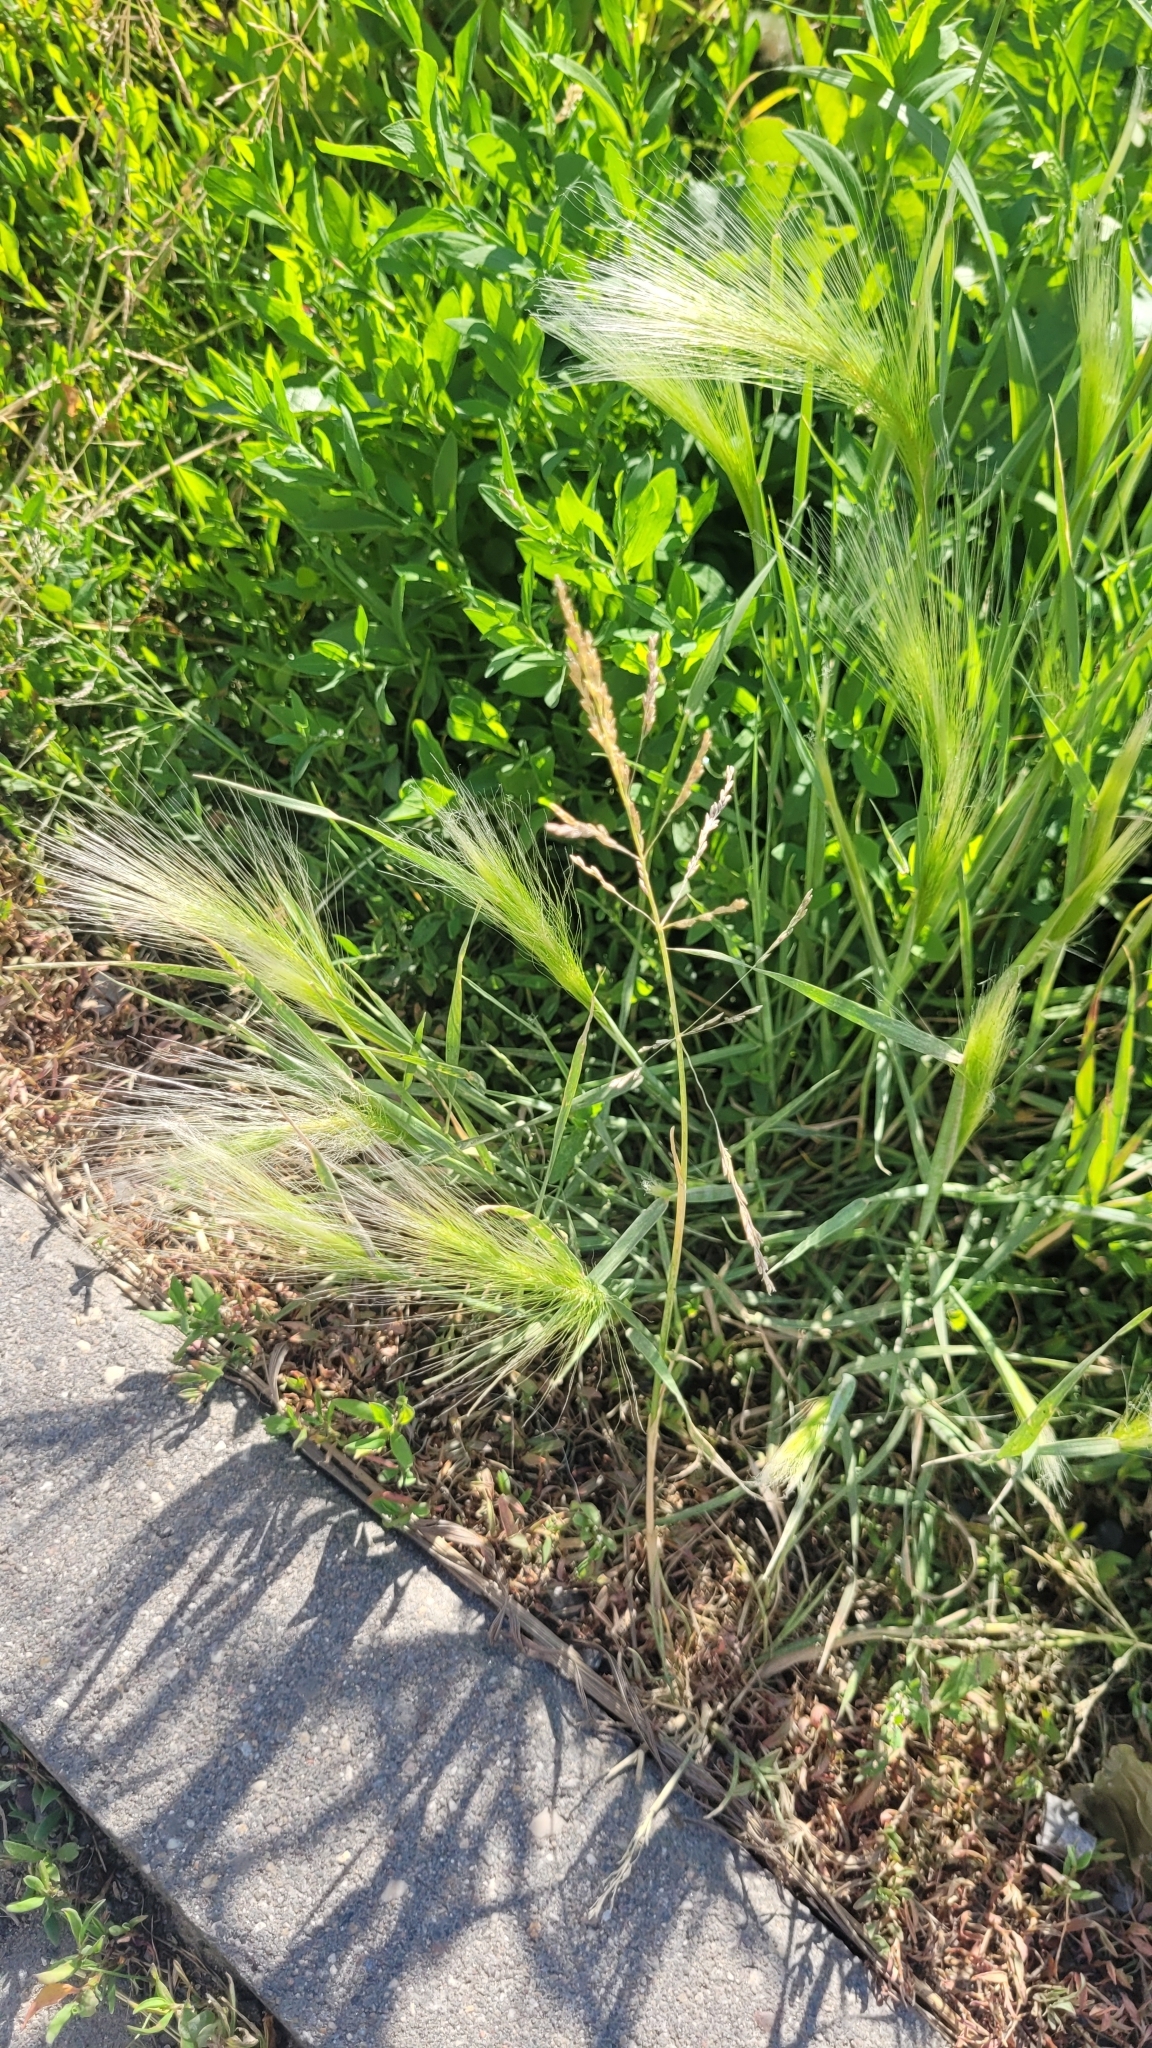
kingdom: Plantae
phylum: Tracheophyta
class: Liliopsida
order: Poales
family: Poaceae
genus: Hordeum
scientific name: Hordeum jubatum
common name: Foxtail barley
